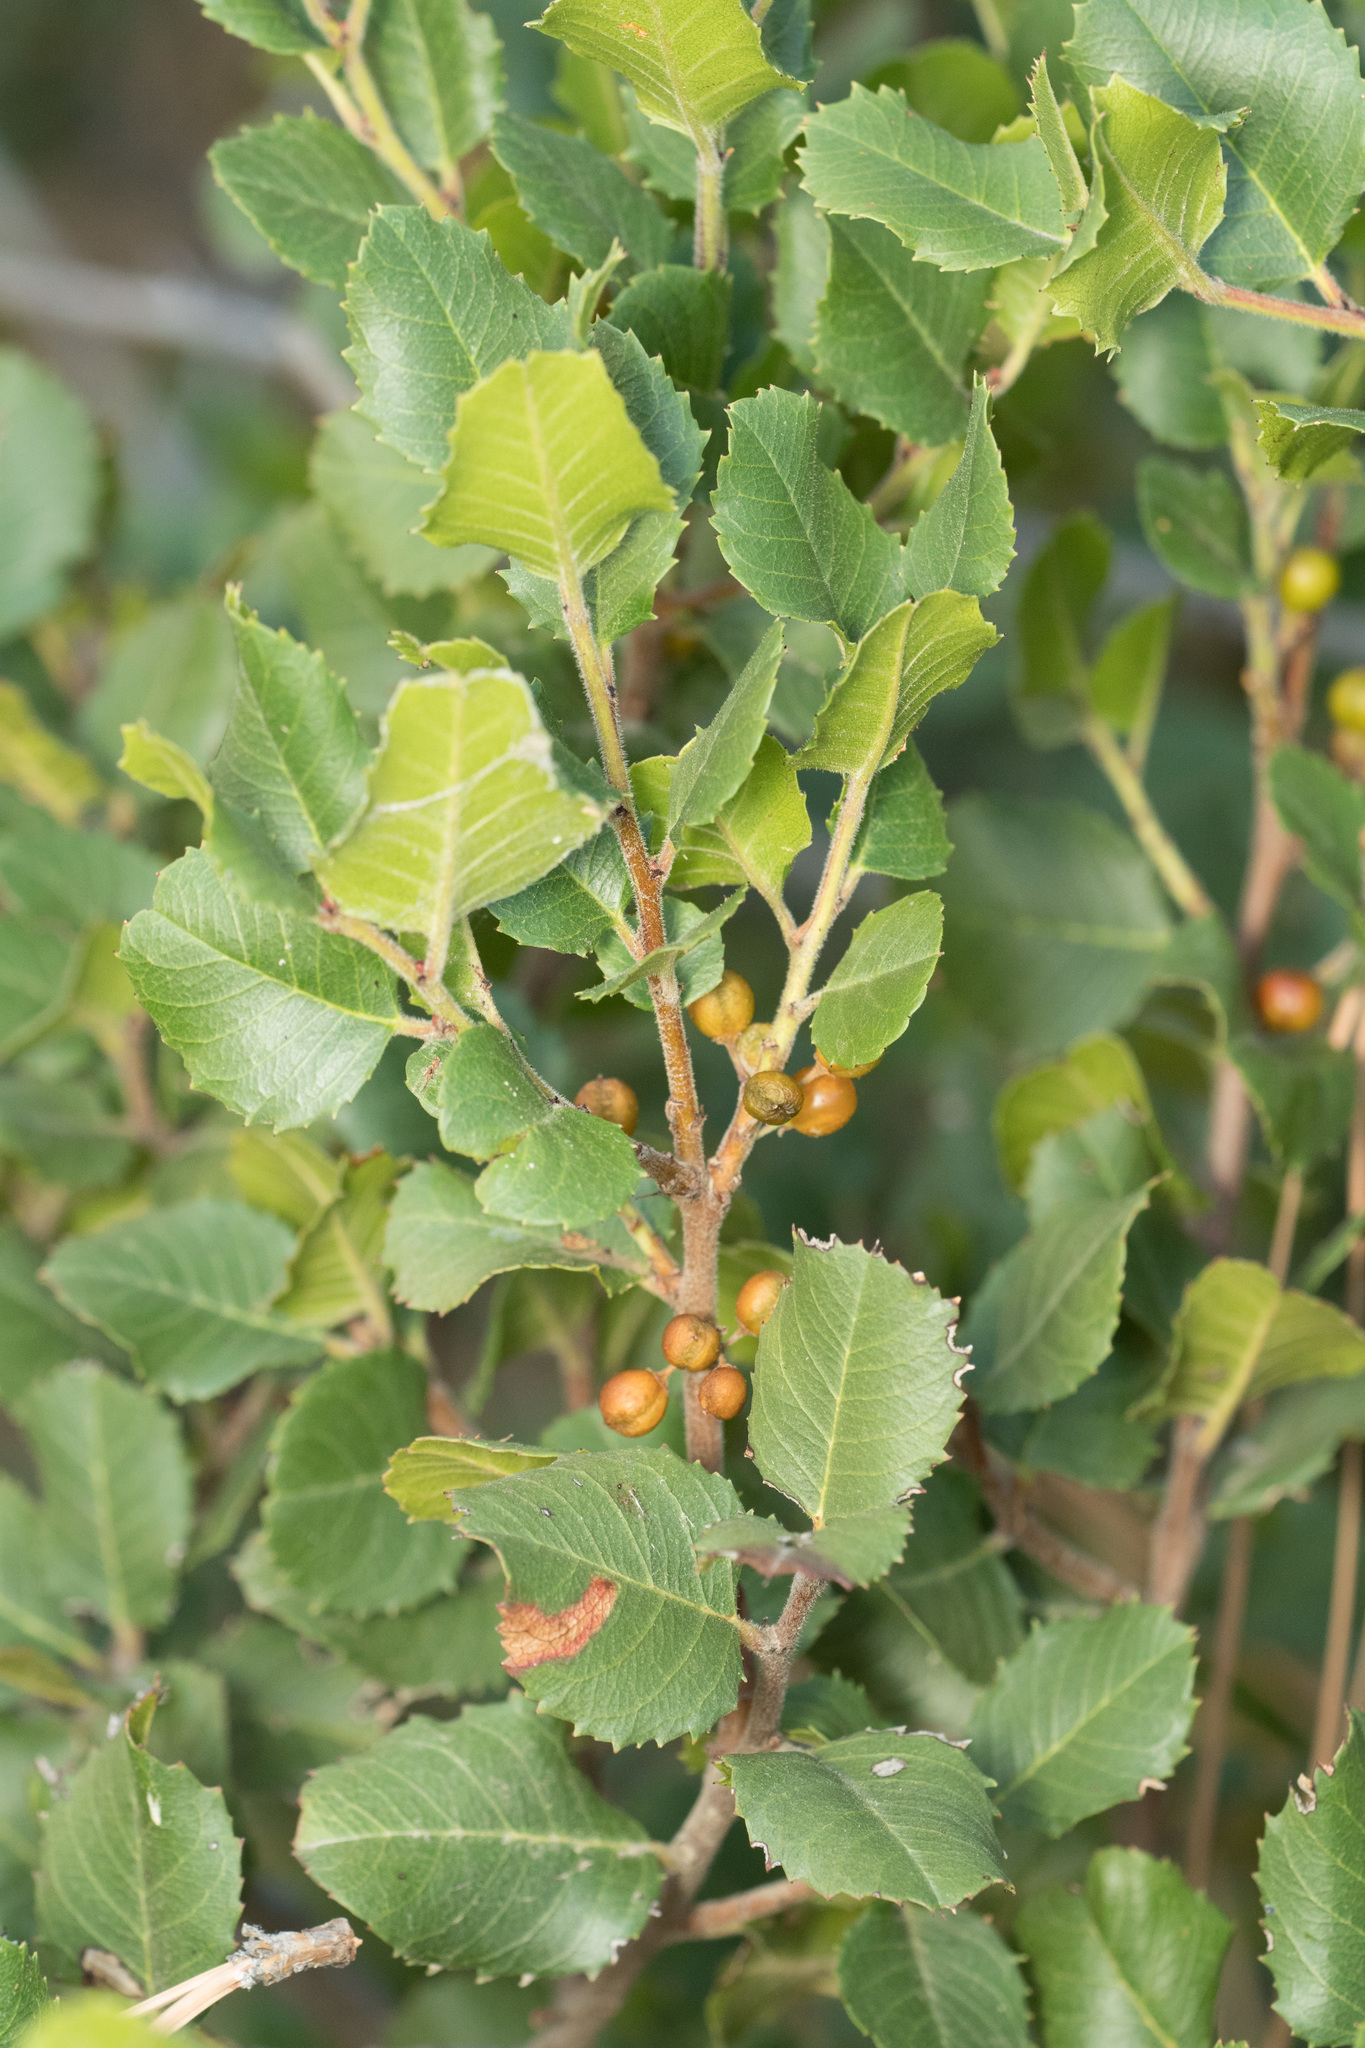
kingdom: Plantae
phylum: Tracheophyta
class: Magnoliopsida
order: Rosales
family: Rhamnaceae
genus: Endotropis
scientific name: Endotropis crocea
